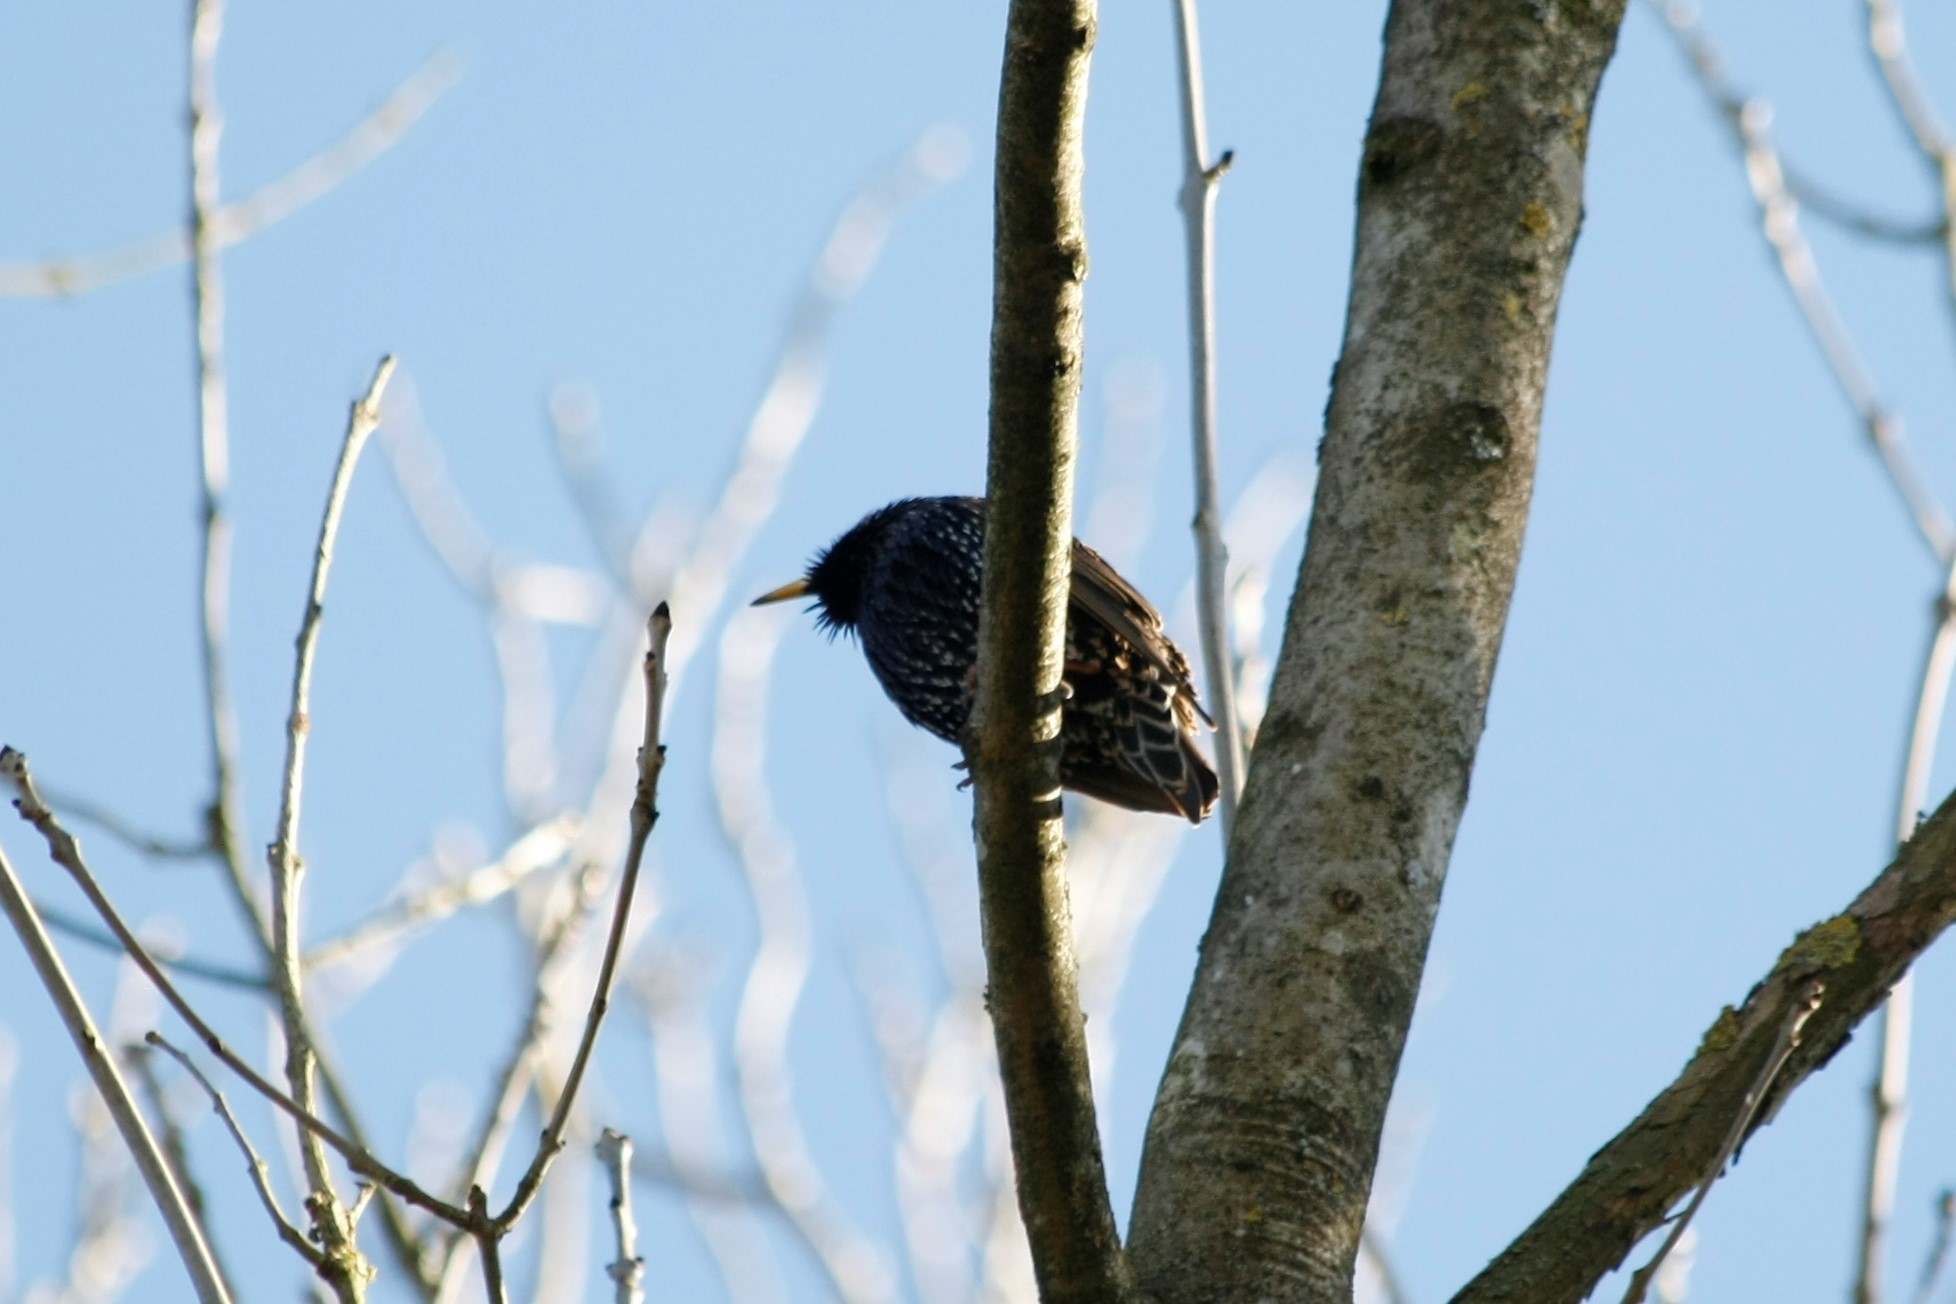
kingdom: Animalia
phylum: Chordata
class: Aves
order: Passeriformes
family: Sturnidae
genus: Sturnus
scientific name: Sturnus vulgaris
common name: Common starling
